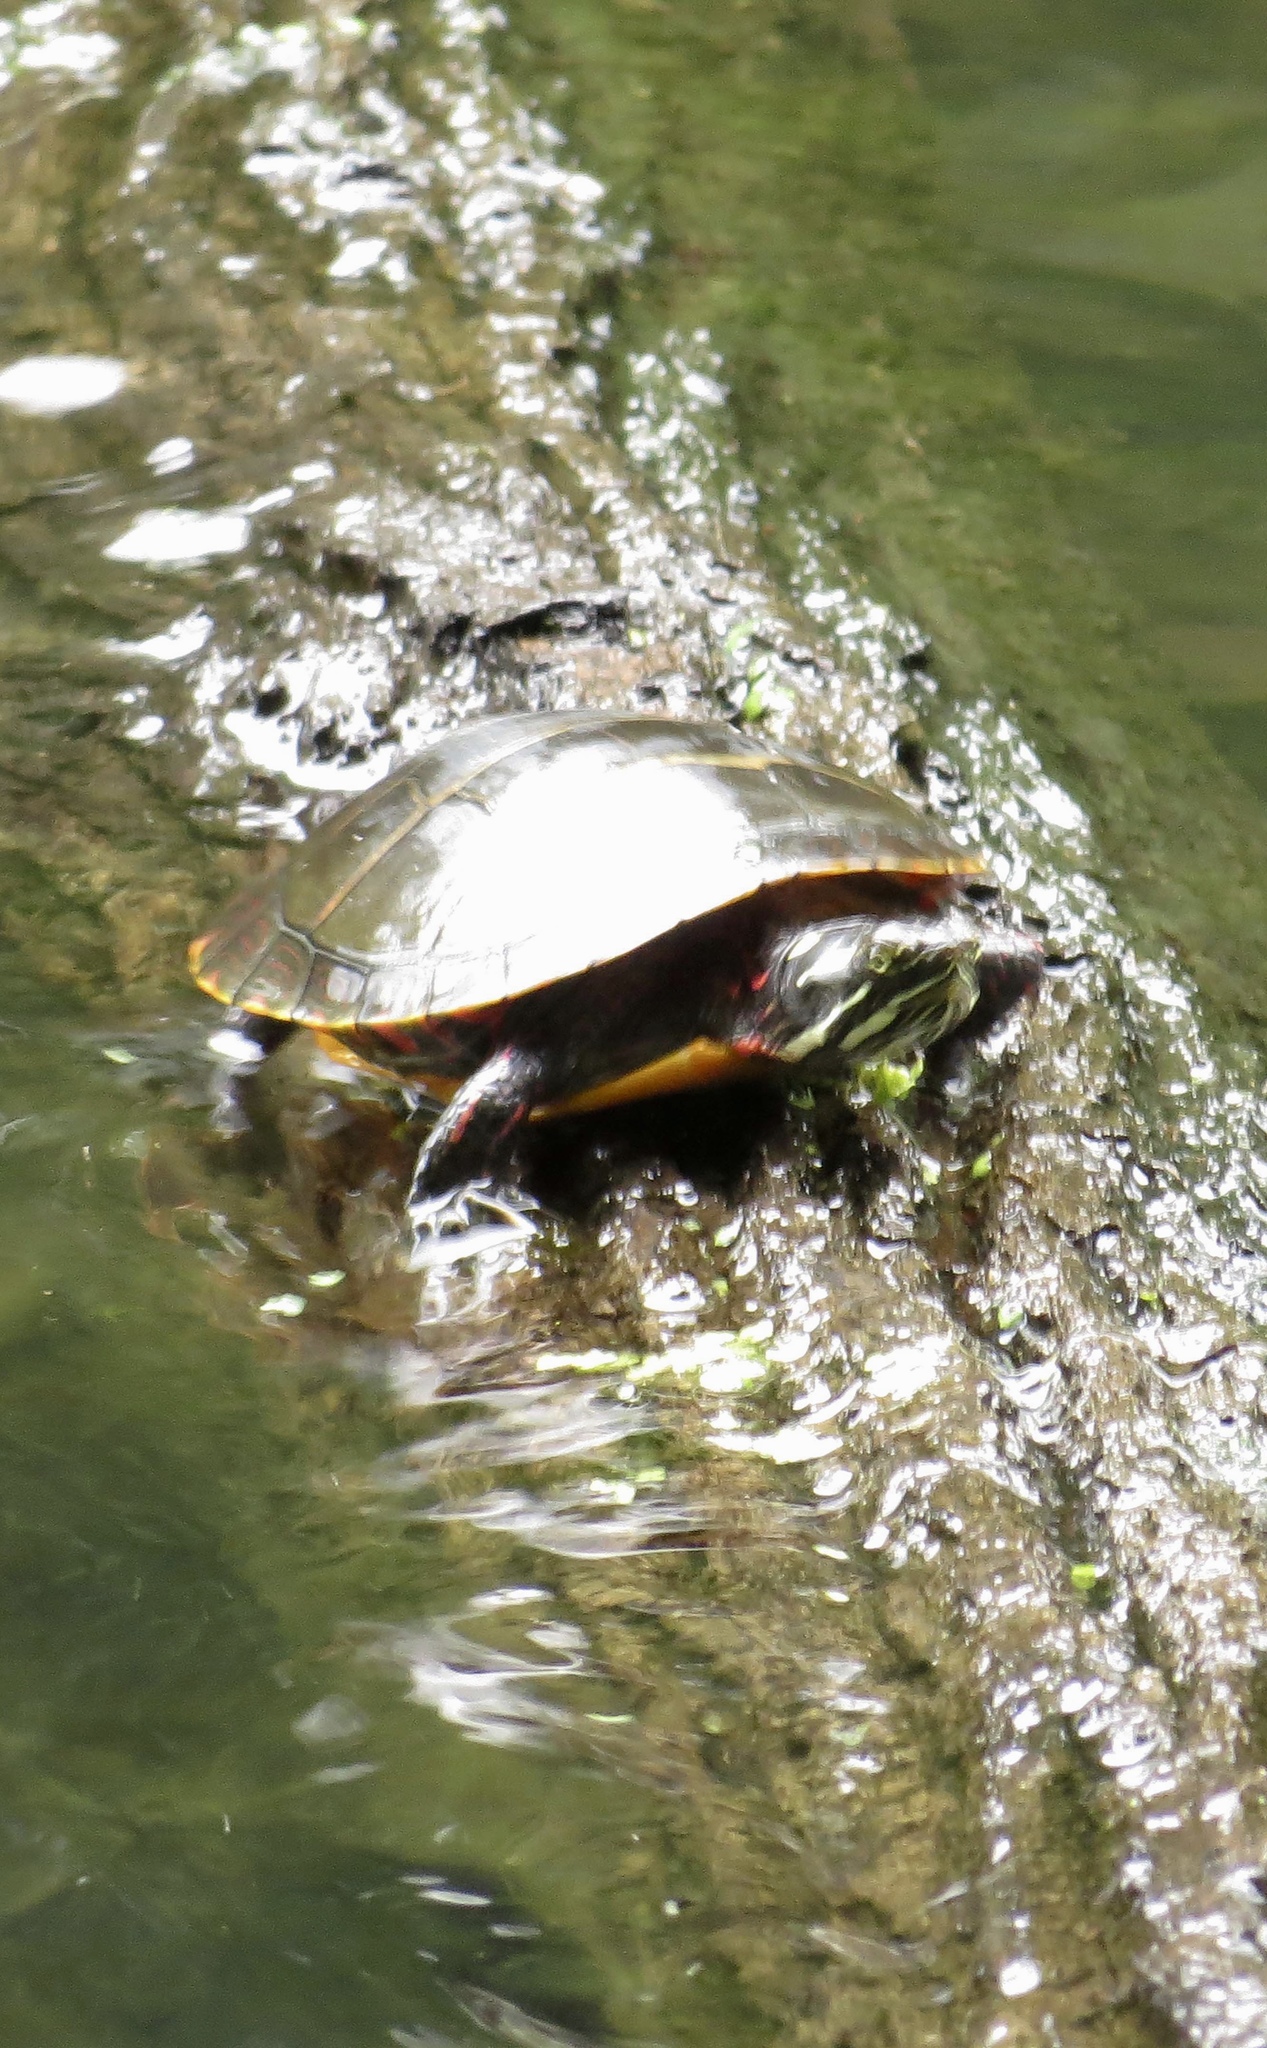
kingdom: Animalia
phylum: Chordata
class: Testudines
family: Emydidae
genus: Chrysemys
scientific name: Chrysemys picta
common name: Painted turtle
